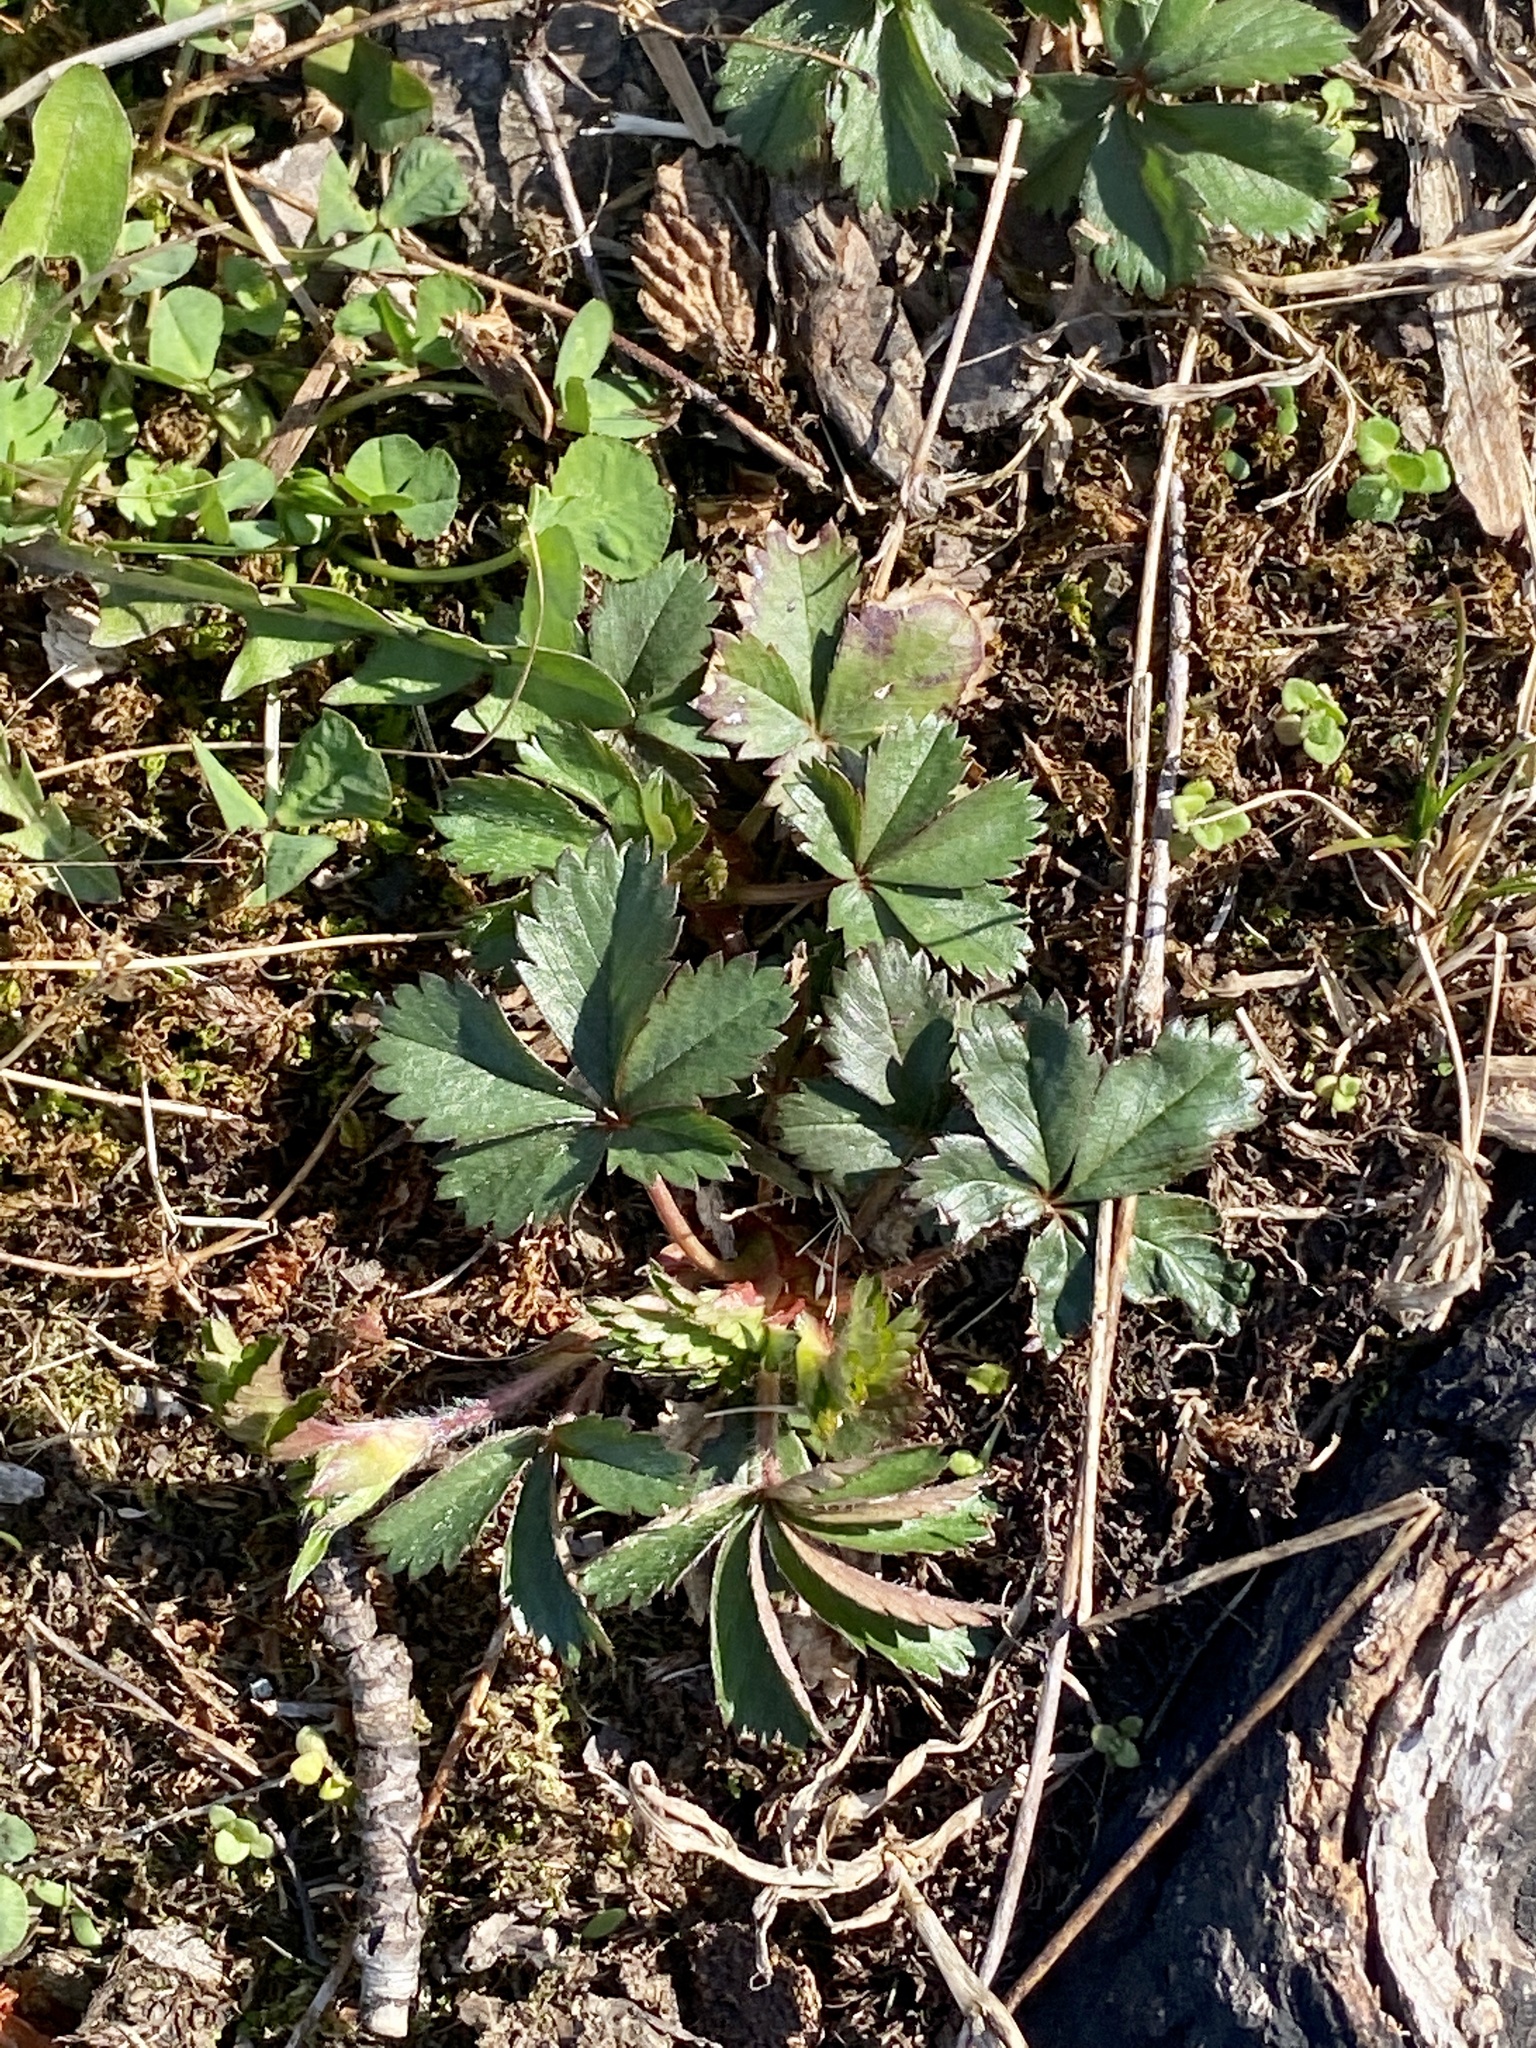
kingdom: Plantae
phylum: Tracheophyta
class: Magnoliopsida
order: Rosales
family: Rosaceae
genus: Potentilla
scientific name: Potentilla canadensis
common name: Canada cinquefoil
